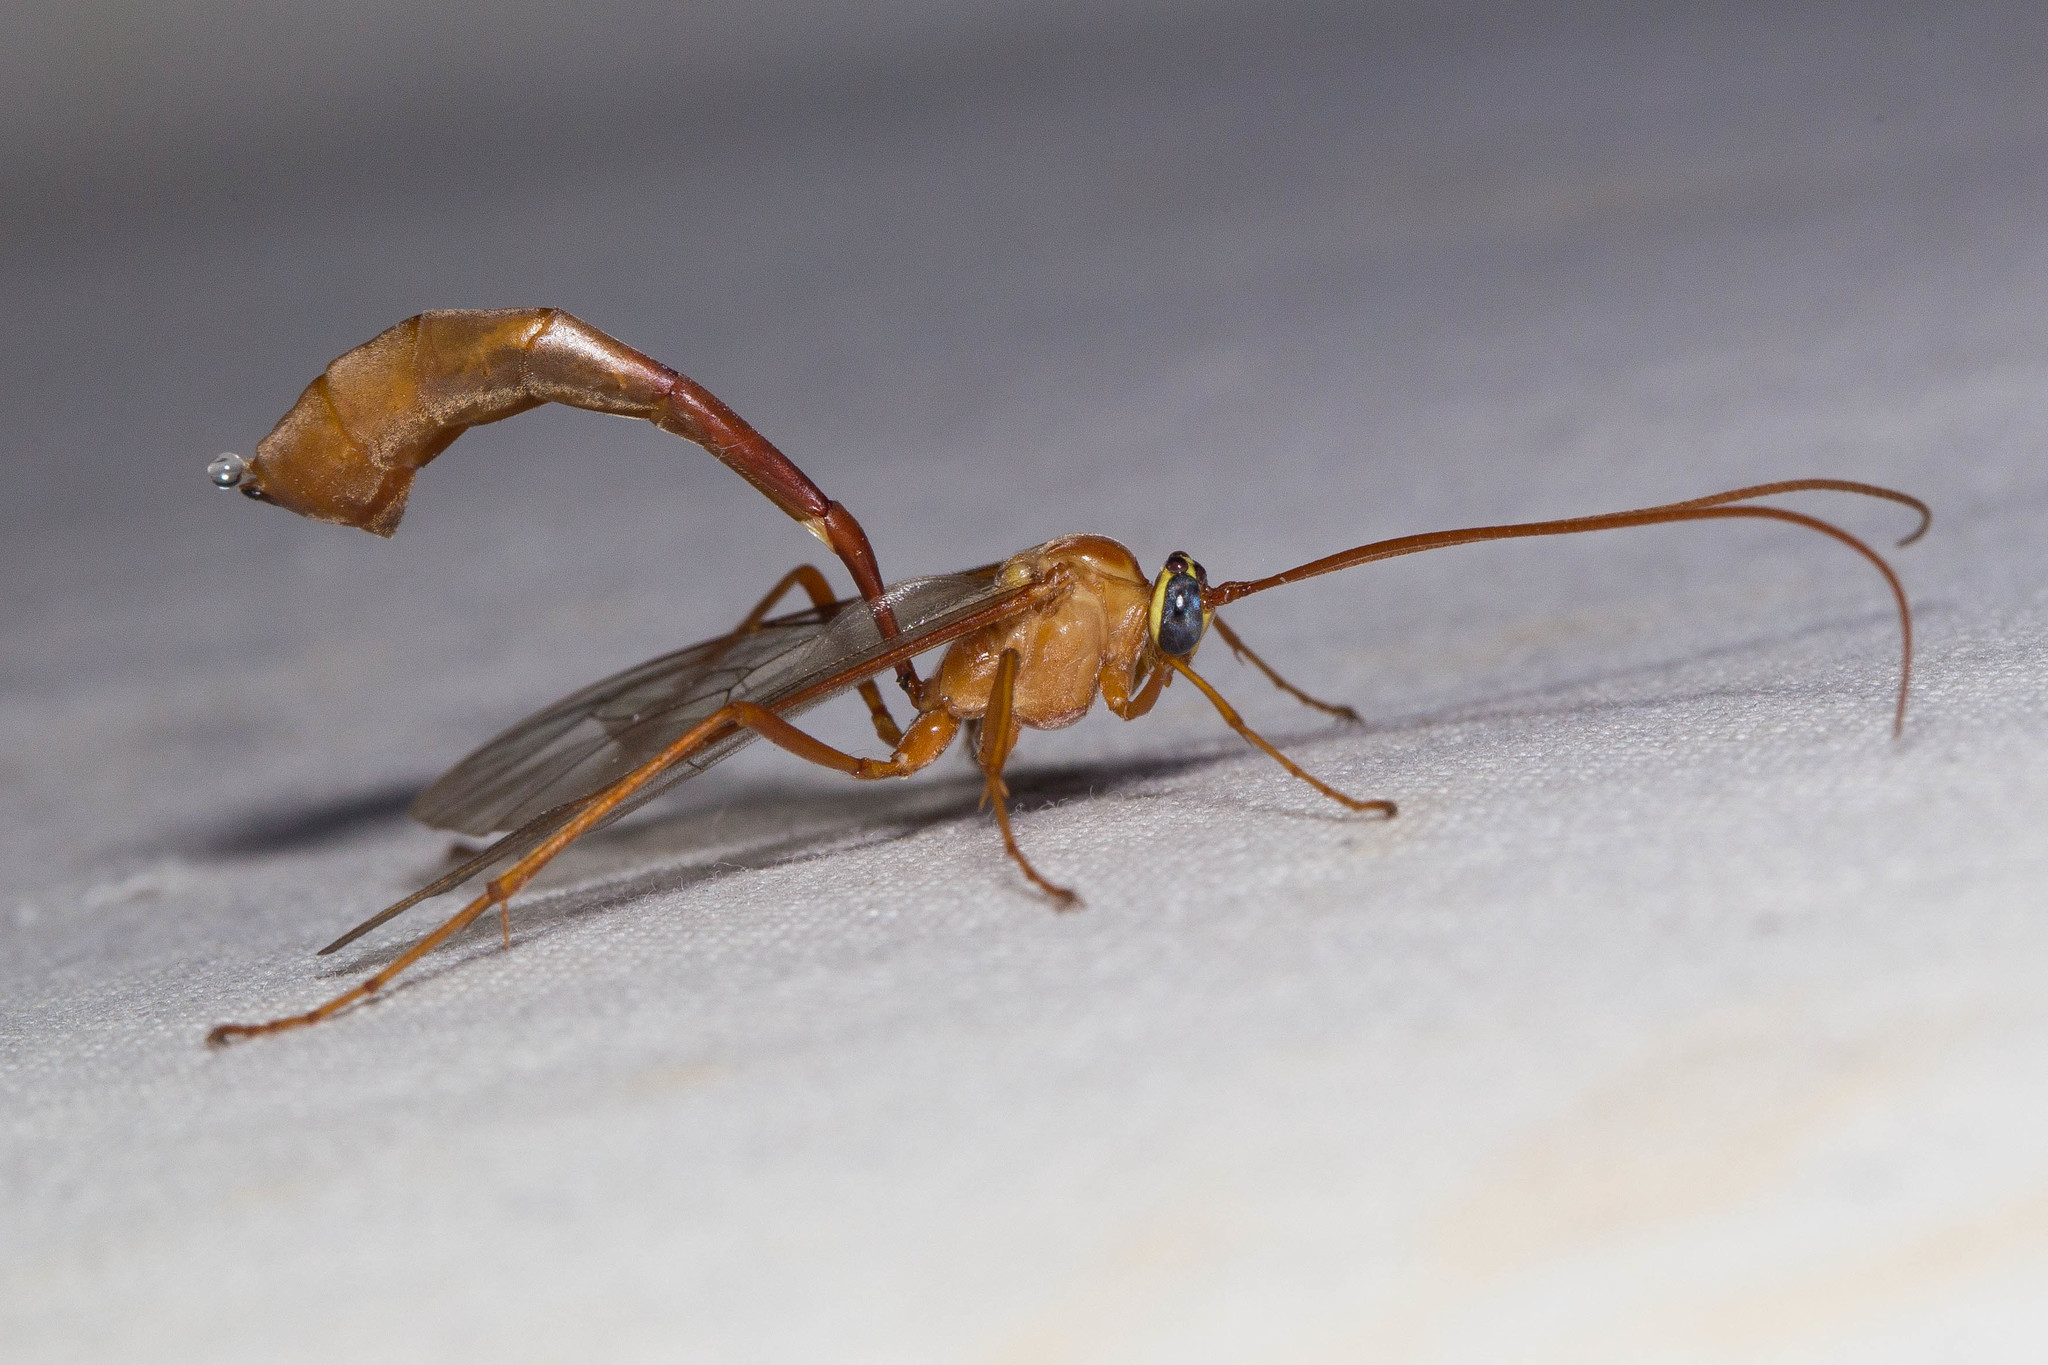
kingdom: Animalia
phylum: Arthropoda
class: Insecta
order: Hymenoptera
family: Ichneumonidae
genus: Enicospilus
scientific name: Enicospilus
